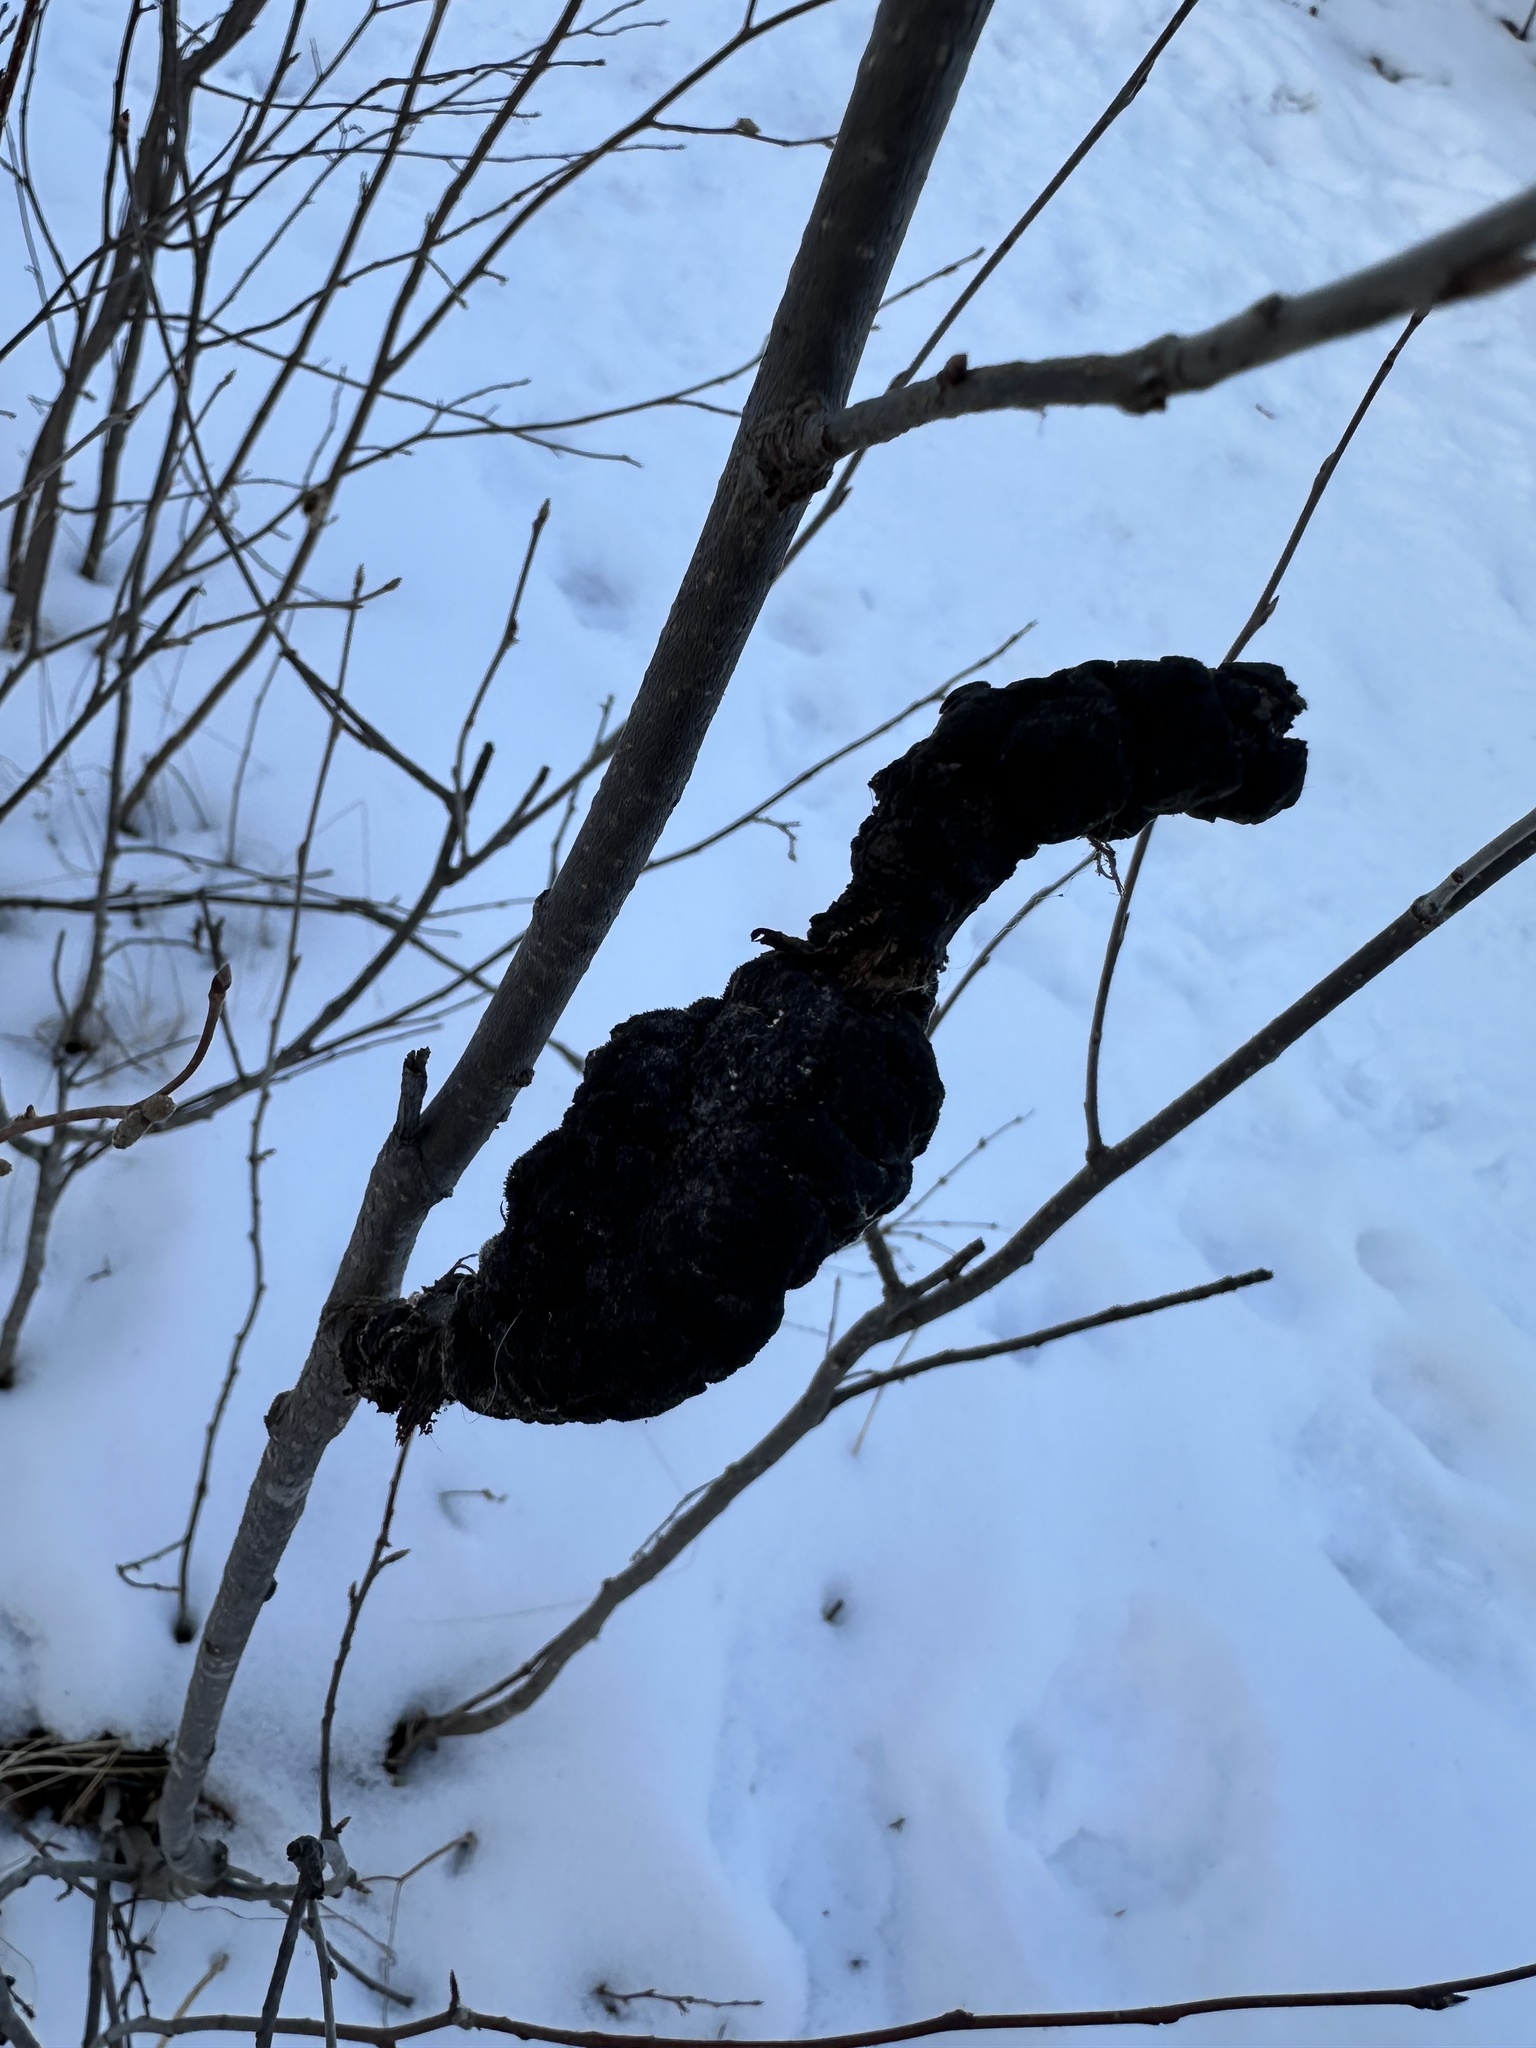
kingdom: Fungi
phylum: Ascomycota
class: Dothideomycetes
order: Venturiales
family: Venturiaceae
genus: Apiosporina
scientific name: Apiosporina morbosa
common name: Black knot
